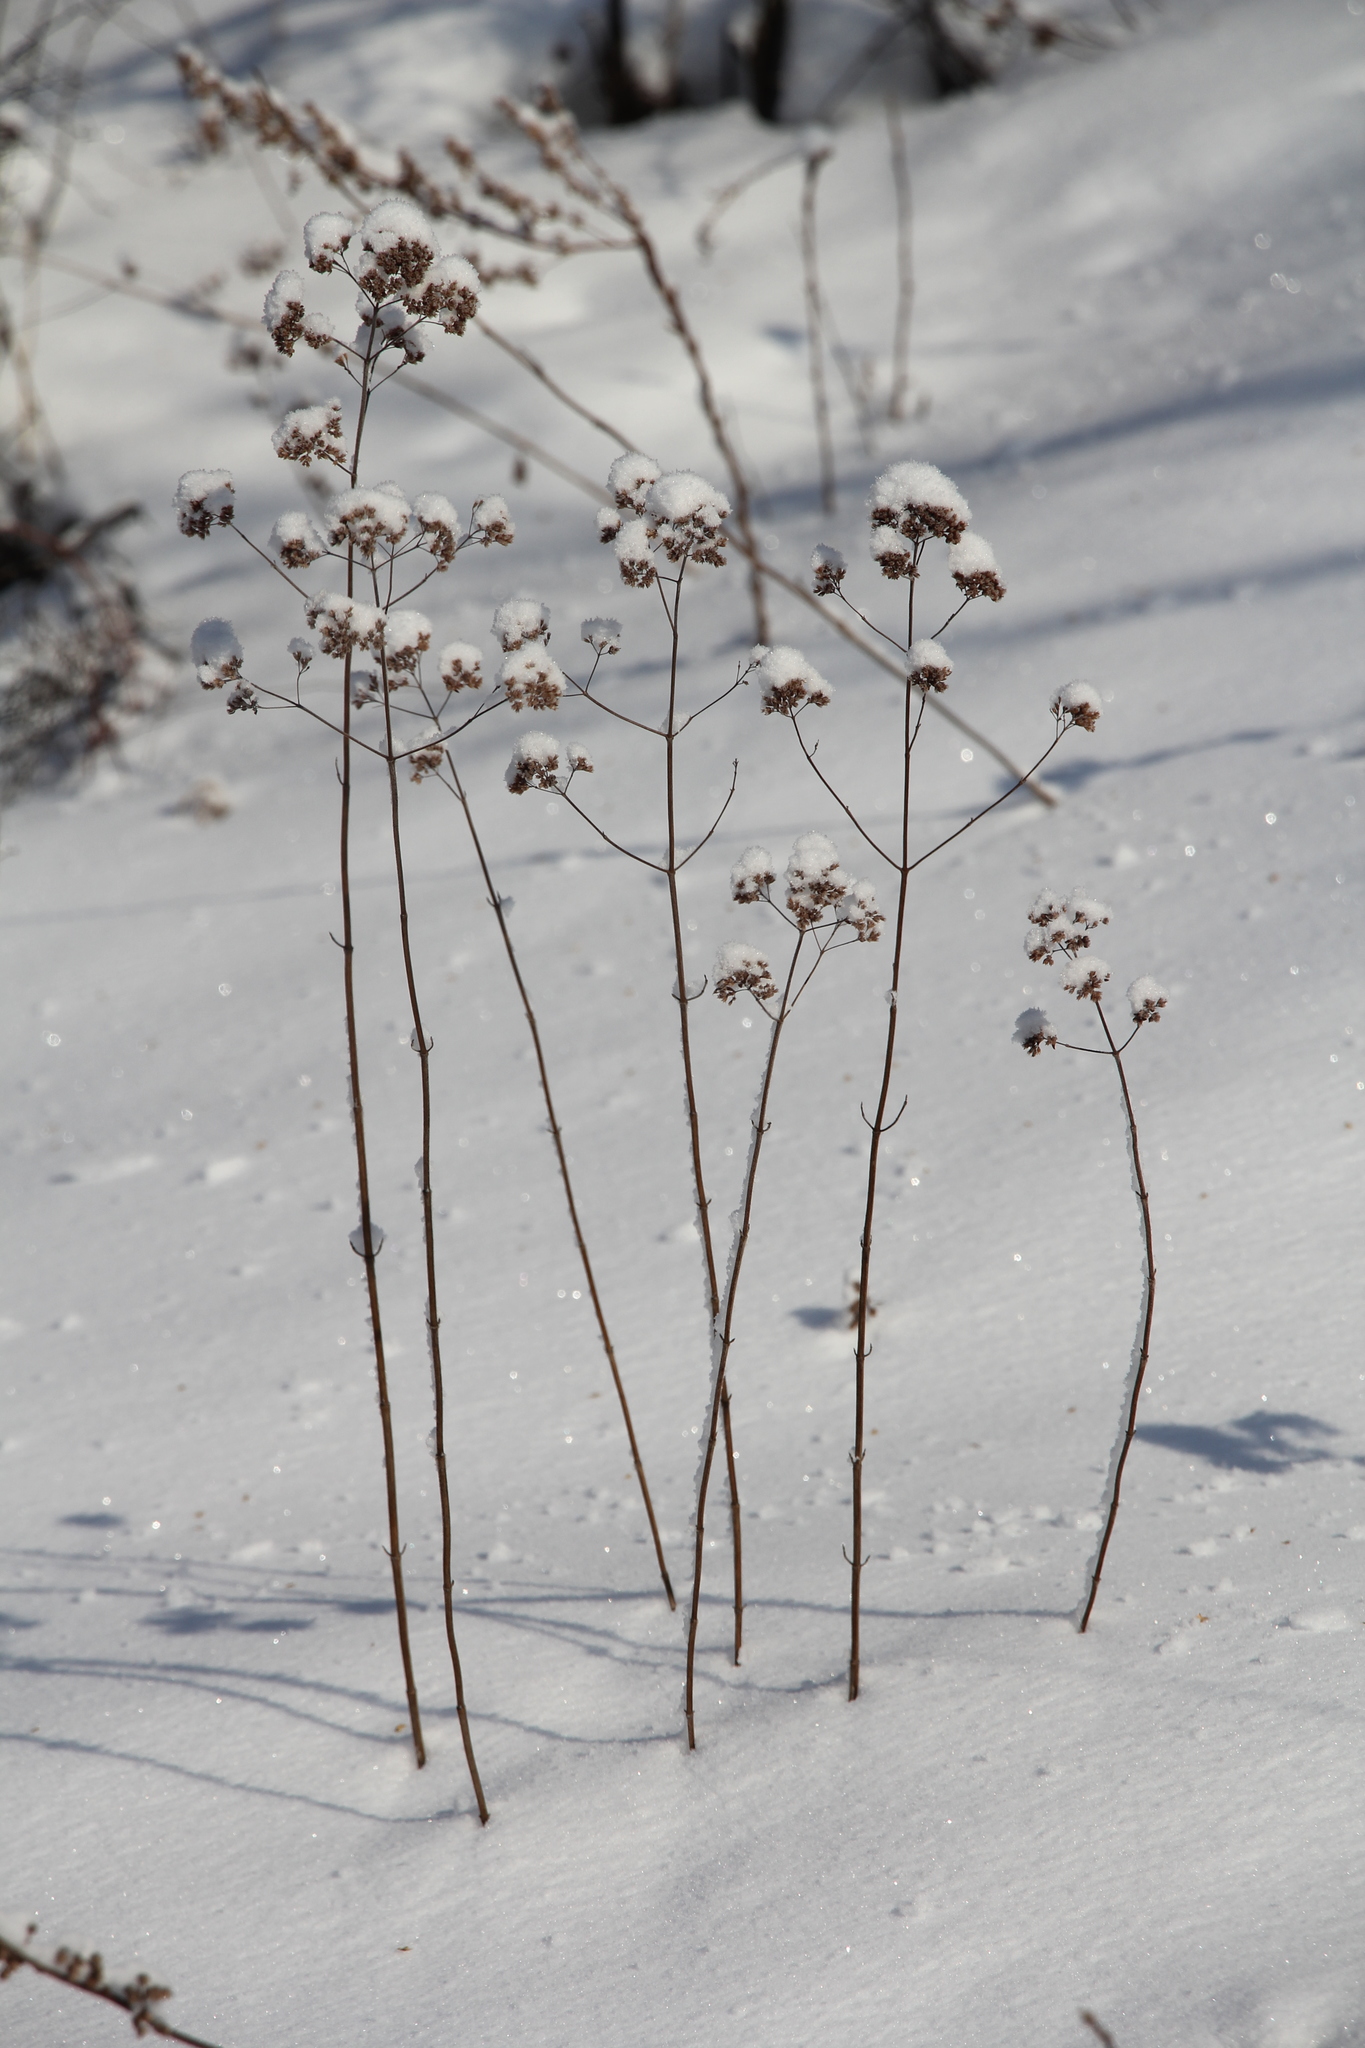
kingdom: Plantae
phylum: Tracheophyta
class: Magnoliopsida
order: Lamiales
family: Lamiaceae
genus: Origanum
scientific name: Origanum vulgare
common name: Wild marjoram
